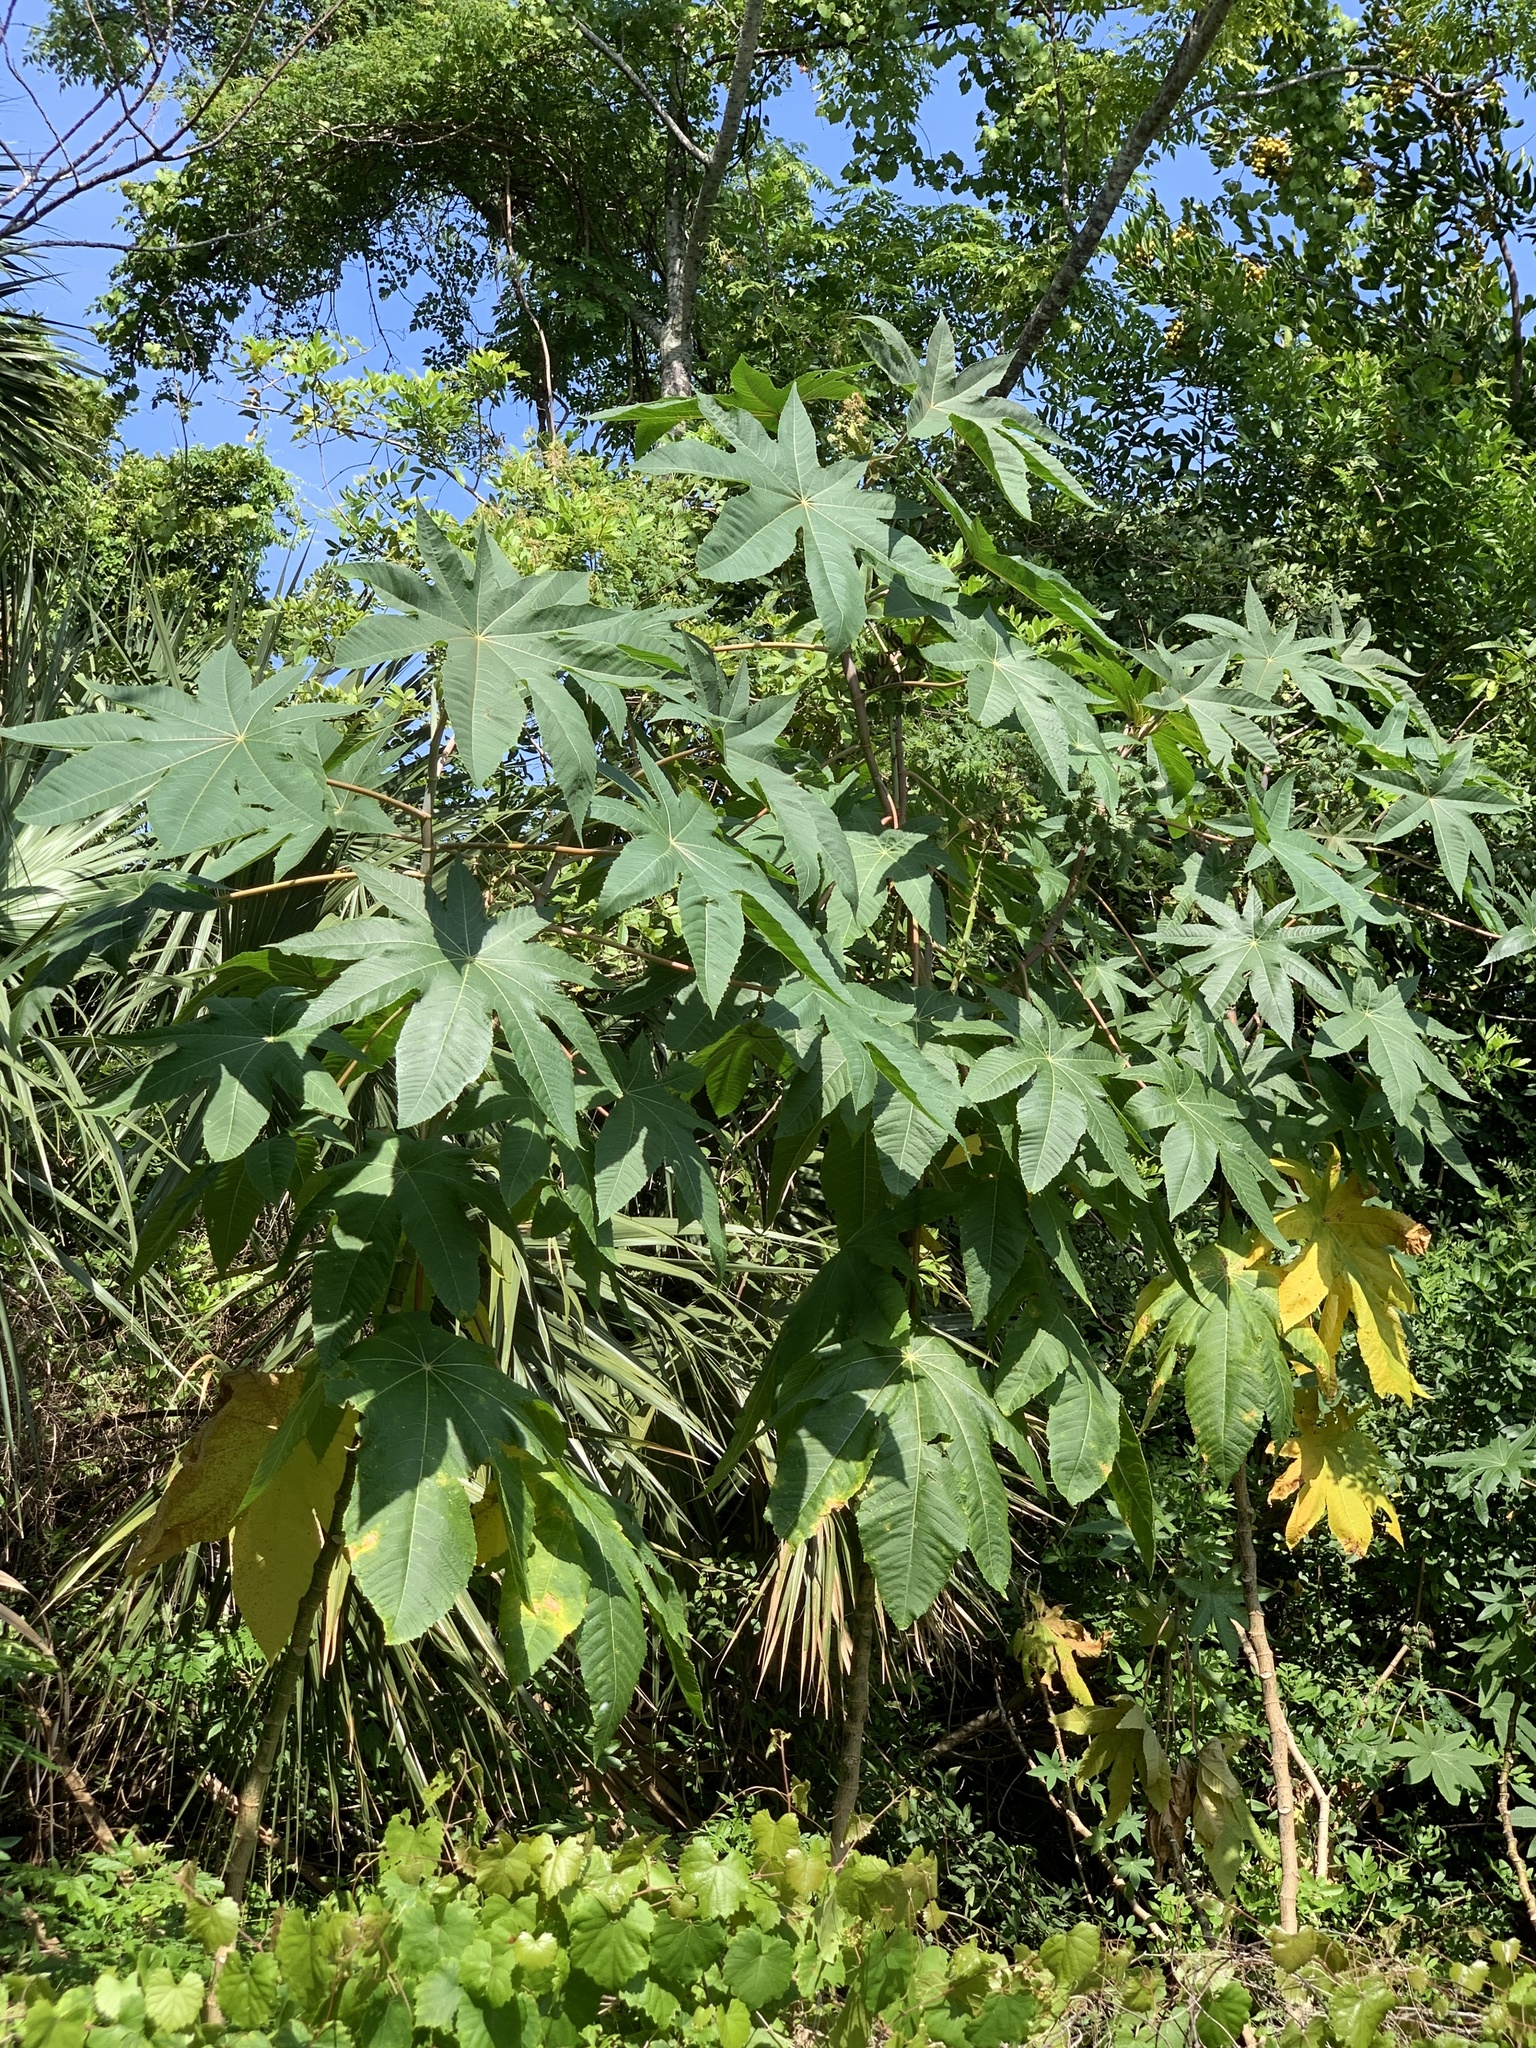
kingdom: Plantae
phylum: Tracheophyta
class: Magnoliopsida
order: Malpighiales
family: Euphorbiaceae
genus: Ricinus
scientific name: Ricinus communis
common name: Castor-oil-plant
